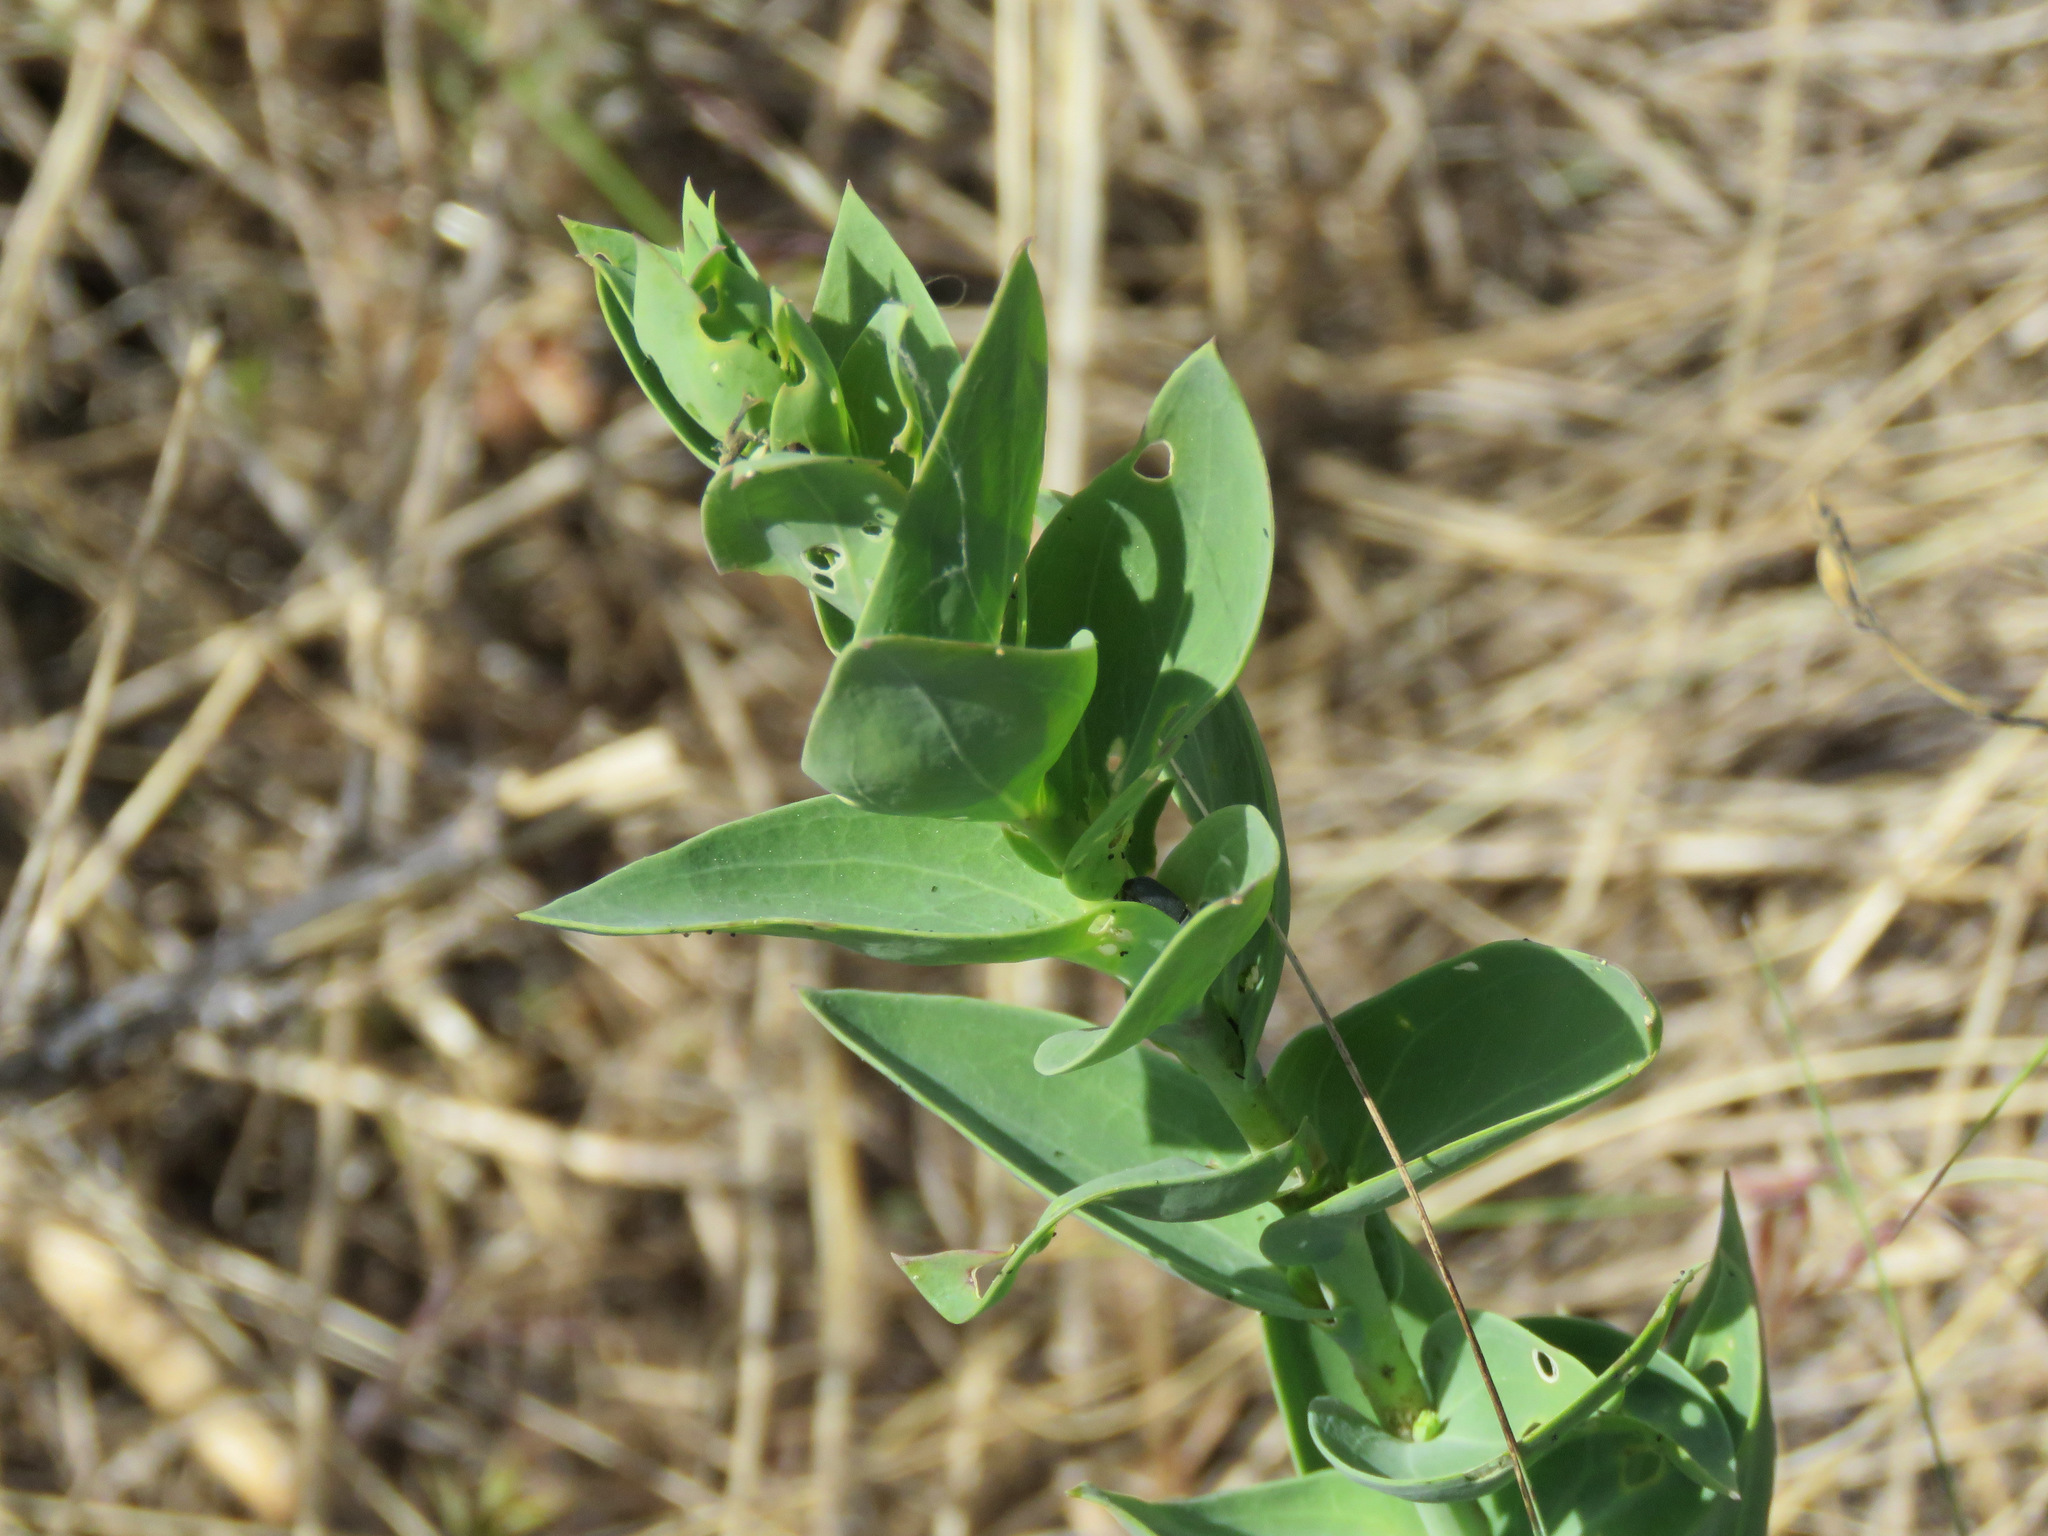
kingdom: Plantae
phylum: Tracheophyta
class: Magnoliopsida
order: Lamiales
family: Plantaginaceae
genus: Linaria
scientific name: Linaria dalmatica
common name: Dalmatian toadflax
